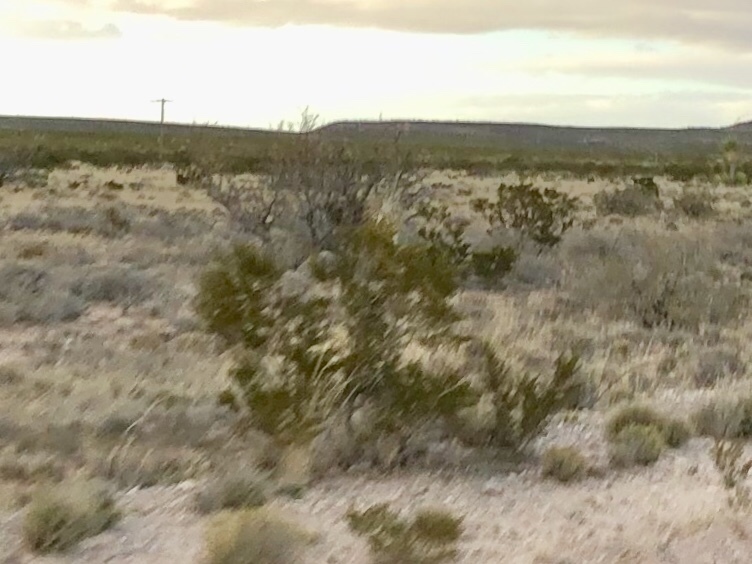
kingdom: Plantae
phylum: Tracheophyta
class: Magnoliopsida
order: Zygophyllales
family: Zygophyllaceae
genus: Larrea
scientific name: Larrea tridentata
